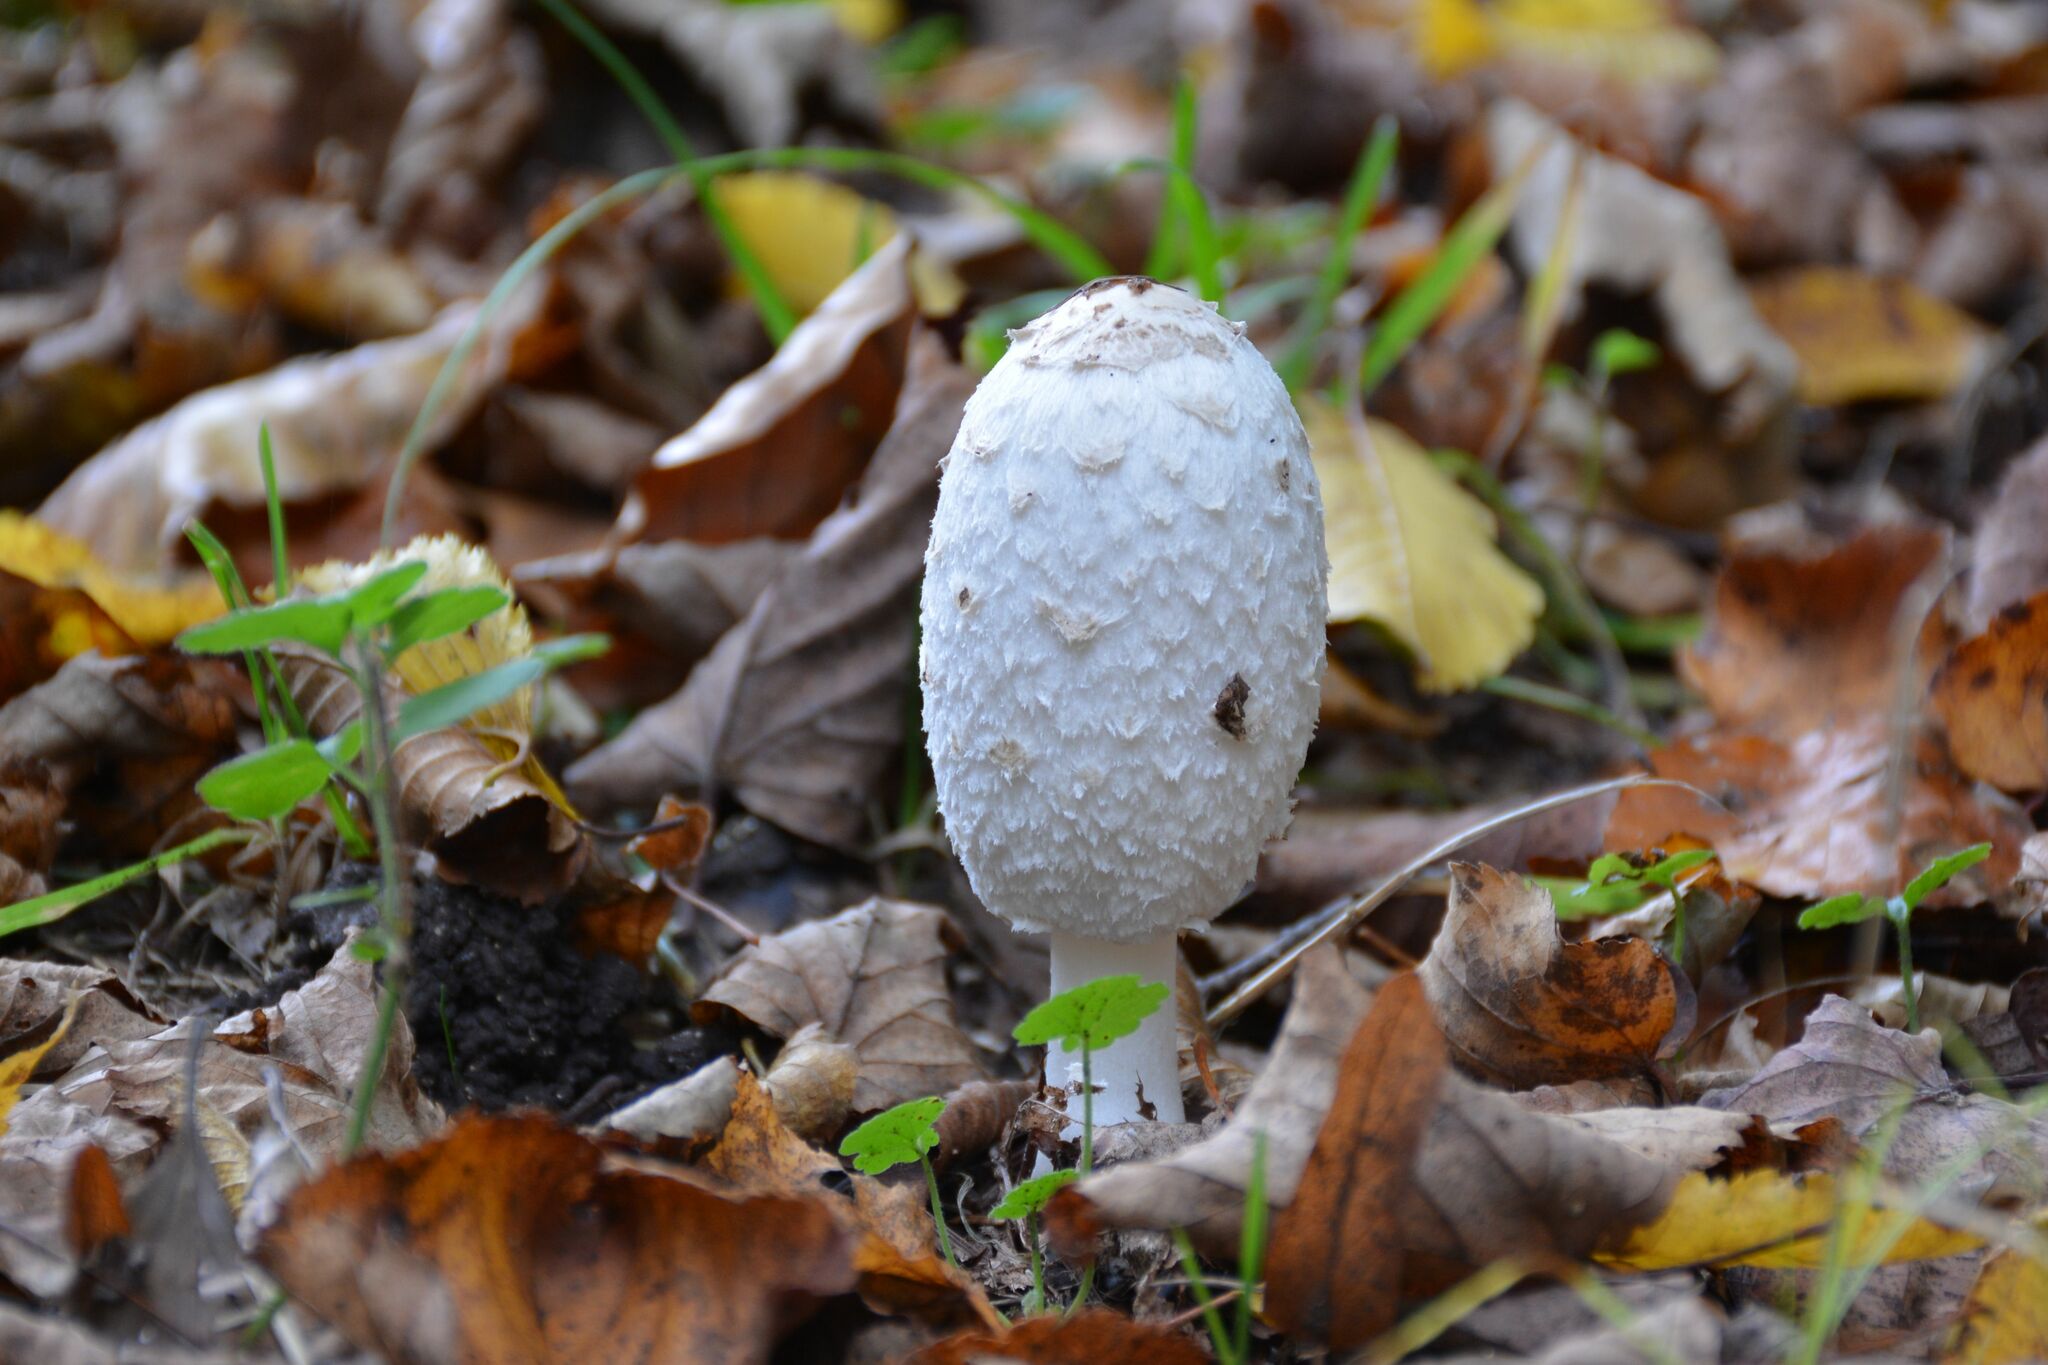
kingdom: Fungi
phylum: Basidiomycota
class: Agaricomycetes
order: Agaricales
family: Agaricaceae
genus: Coprinus
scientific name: Coprinus comatus
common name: Lawyer's wig
